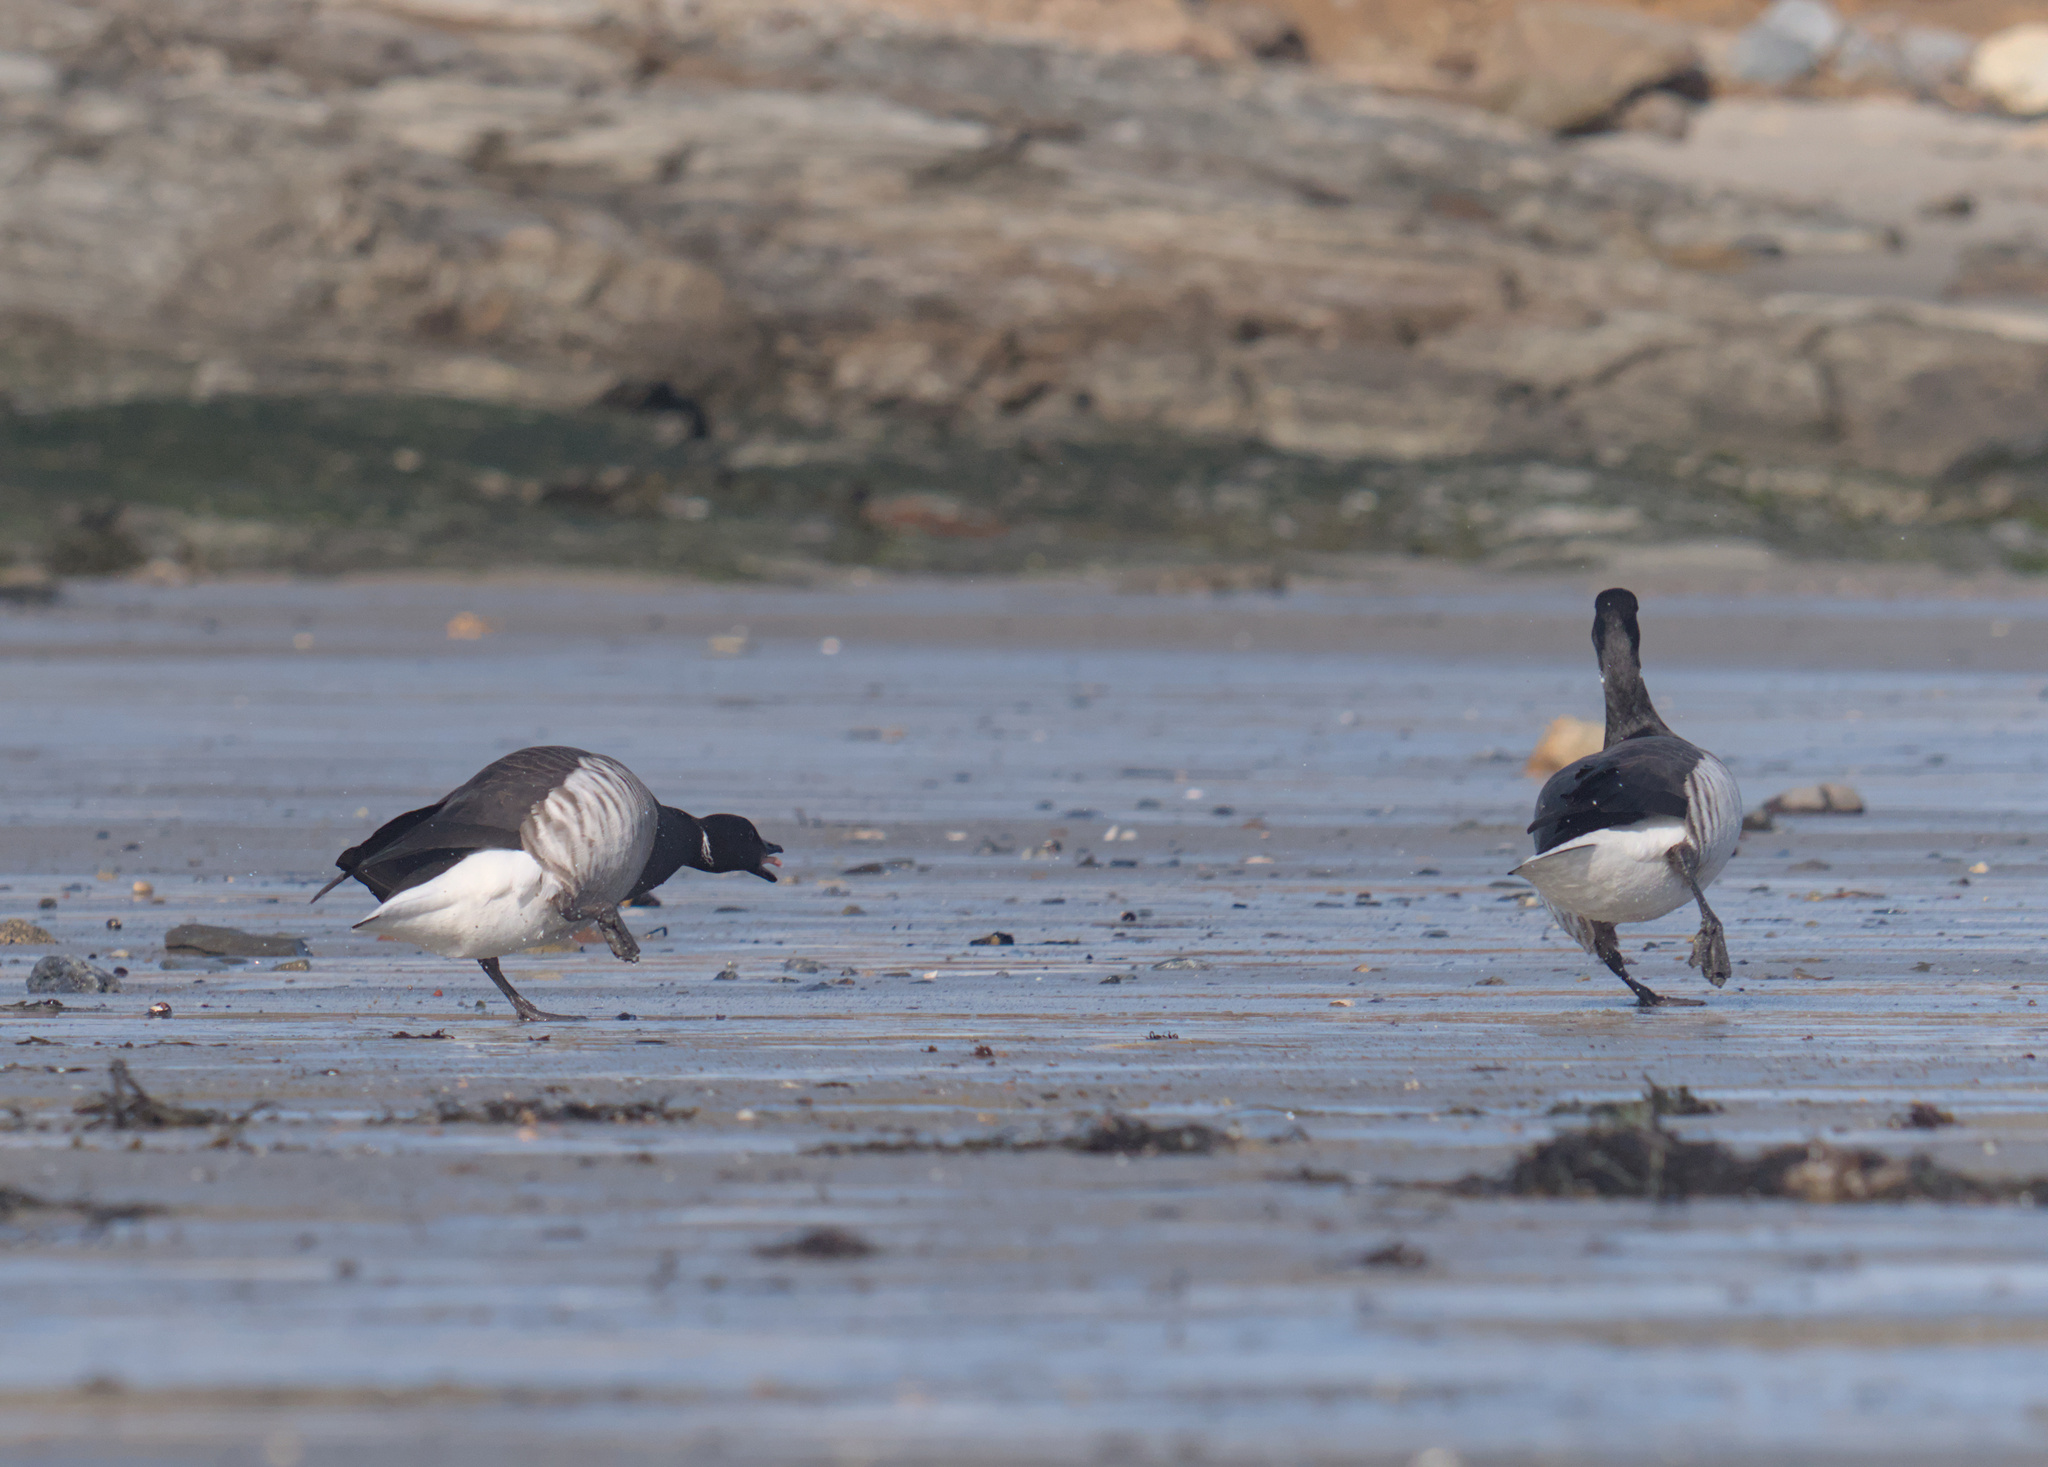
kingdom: Animalia
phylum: Chordata
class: Aves
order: Anseriformes
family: Anatidae
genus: Branta
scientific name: Branta bernicla
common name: Brant goose
